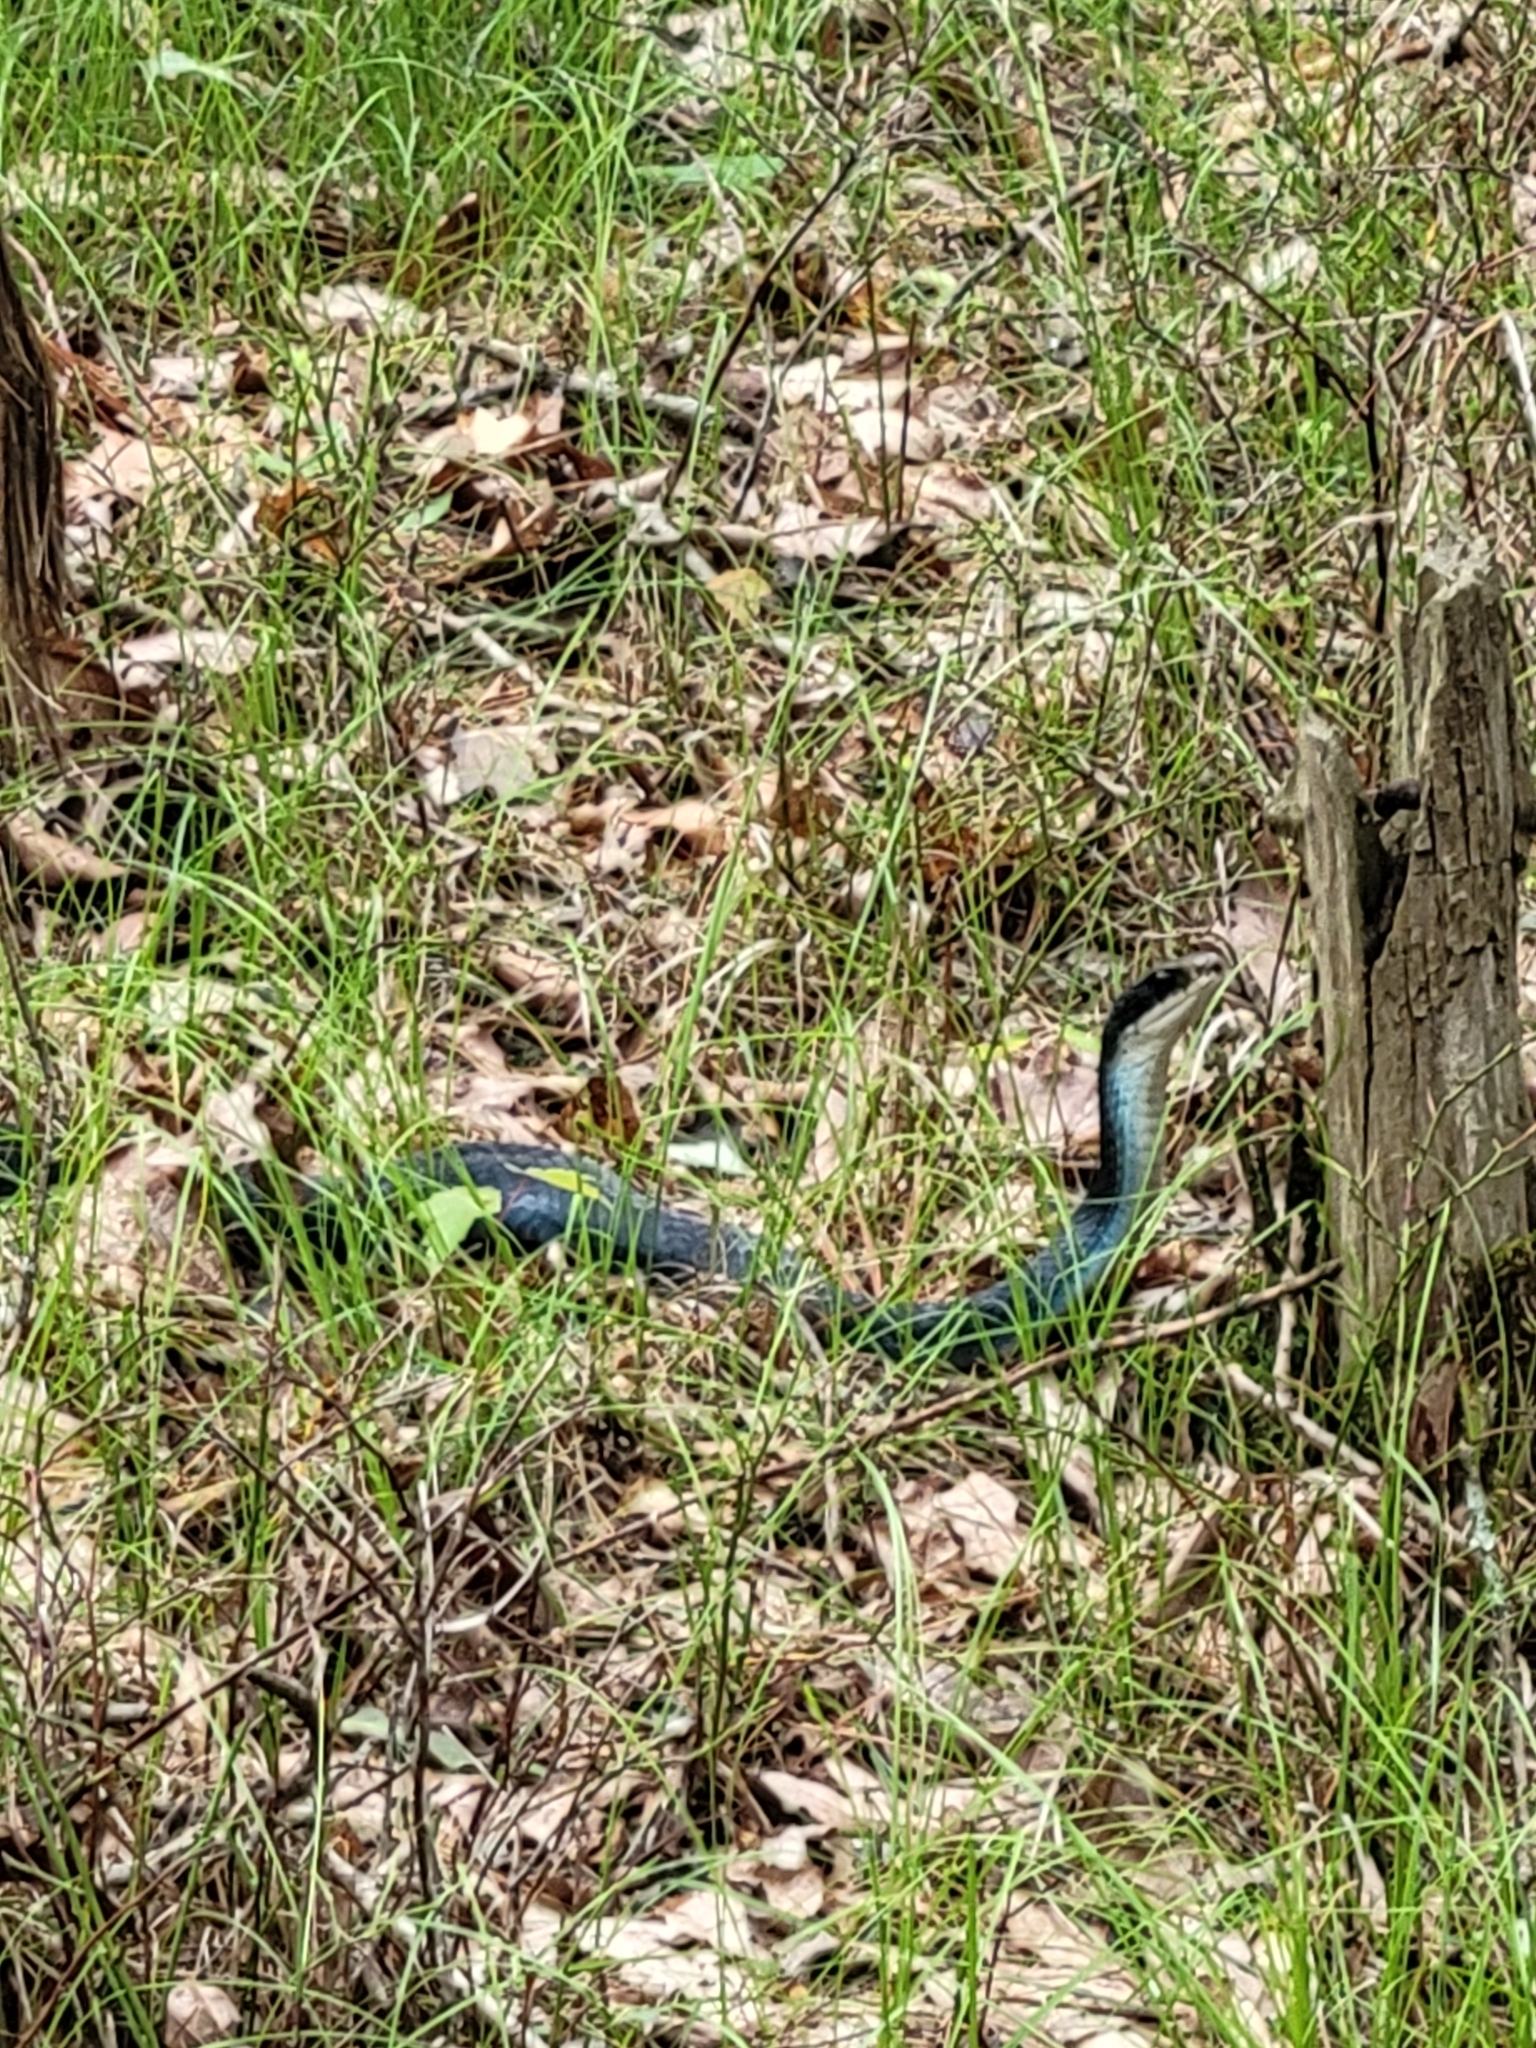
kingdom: Animalia
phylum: Chordata
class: Squamata
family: Colubridae
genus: Coluber
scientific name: Coluber constrictor
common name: Eastern racer
